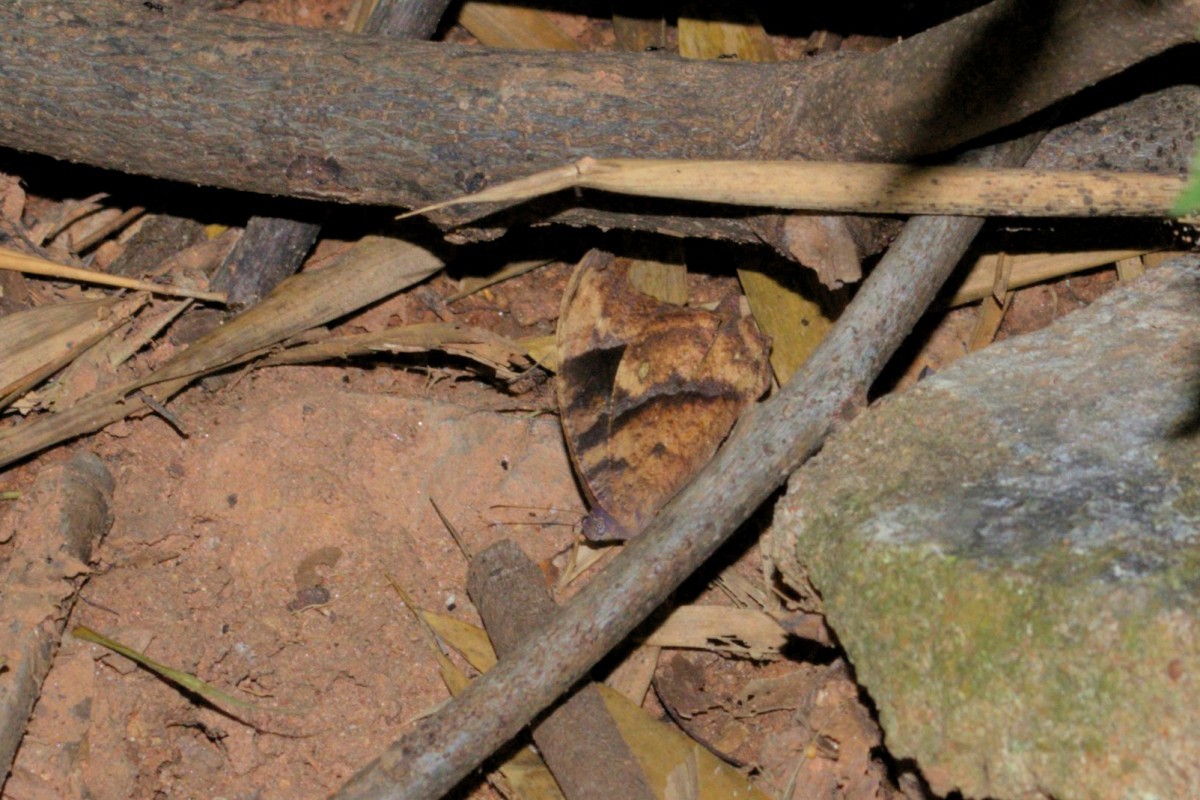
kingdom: Animalia
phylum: Arthropoda
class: Insecta
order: Lepidoptera
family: Nymphalidae
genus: Melanitis
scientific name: Melanitis leda
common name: Twilight brown
